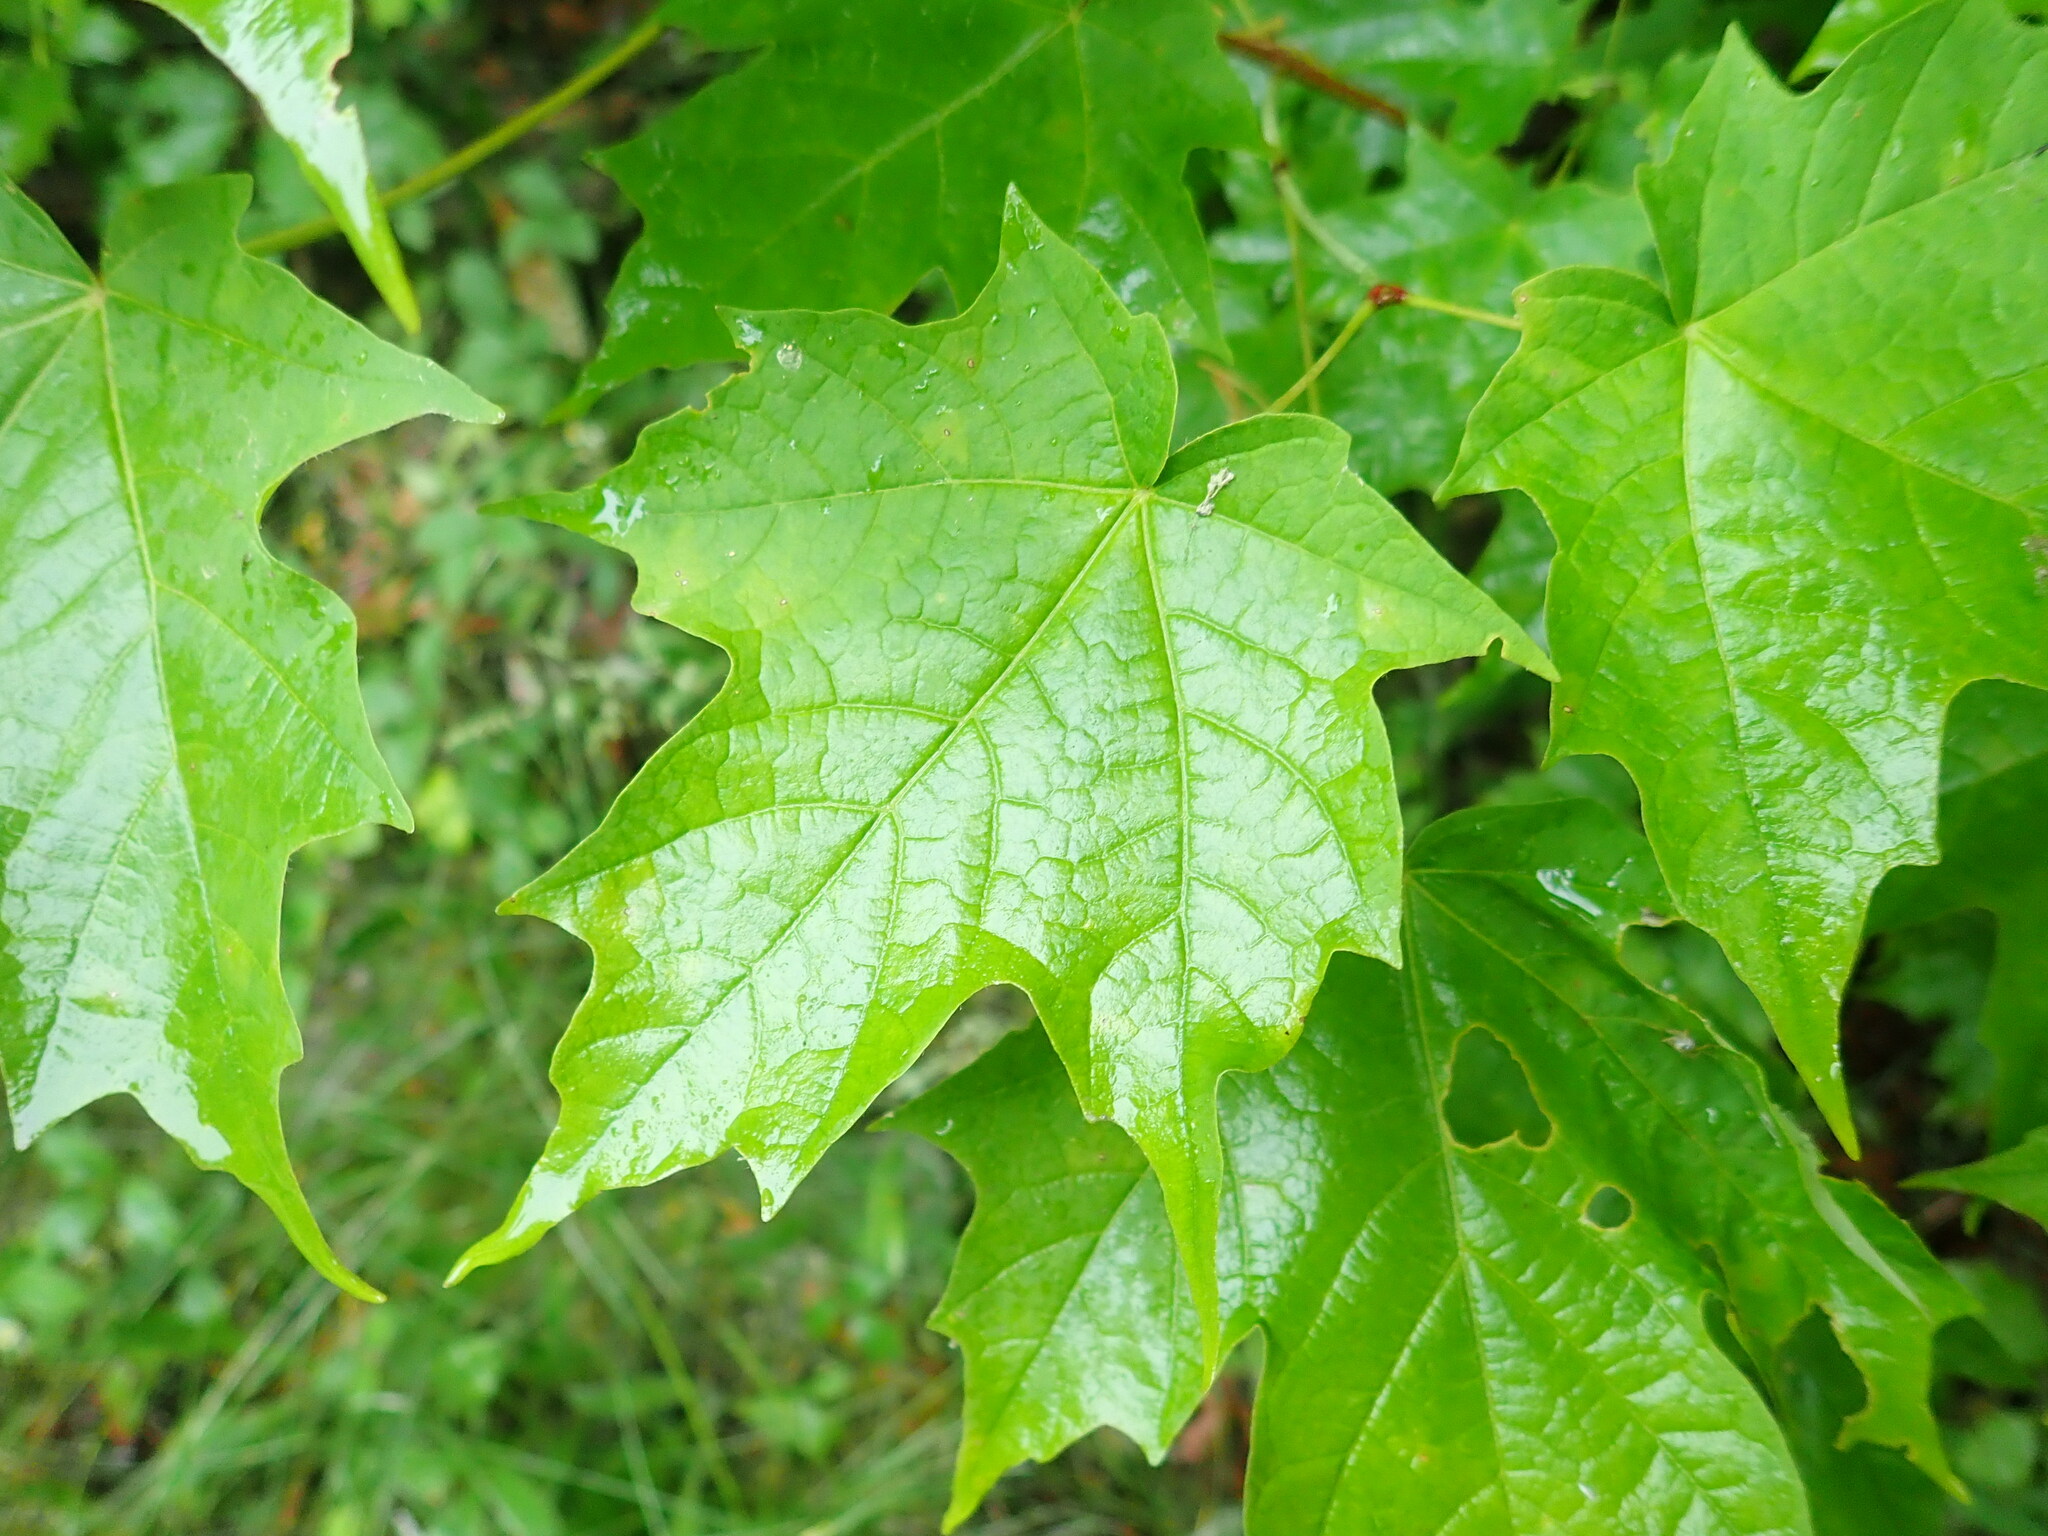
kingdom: Plantae
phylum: Tracheophyta
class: Magnoliopsida
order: Sapindales
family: Sapindaceae
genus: Acer
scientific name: Acer saccharum
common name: Sugar maple
